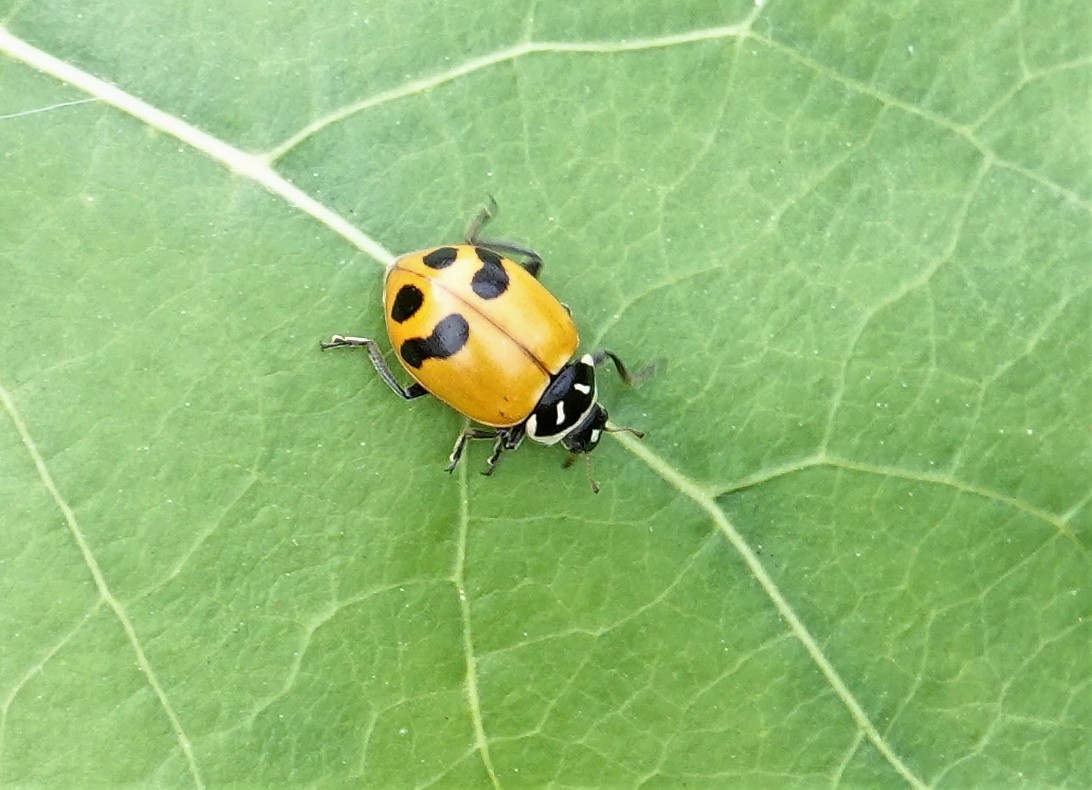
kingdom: Animalia
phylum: Arthropoda
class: Insecta
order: Coleoptera
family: Coccinellidae
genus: Hippodamia
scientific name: Hippodamia glacialis
